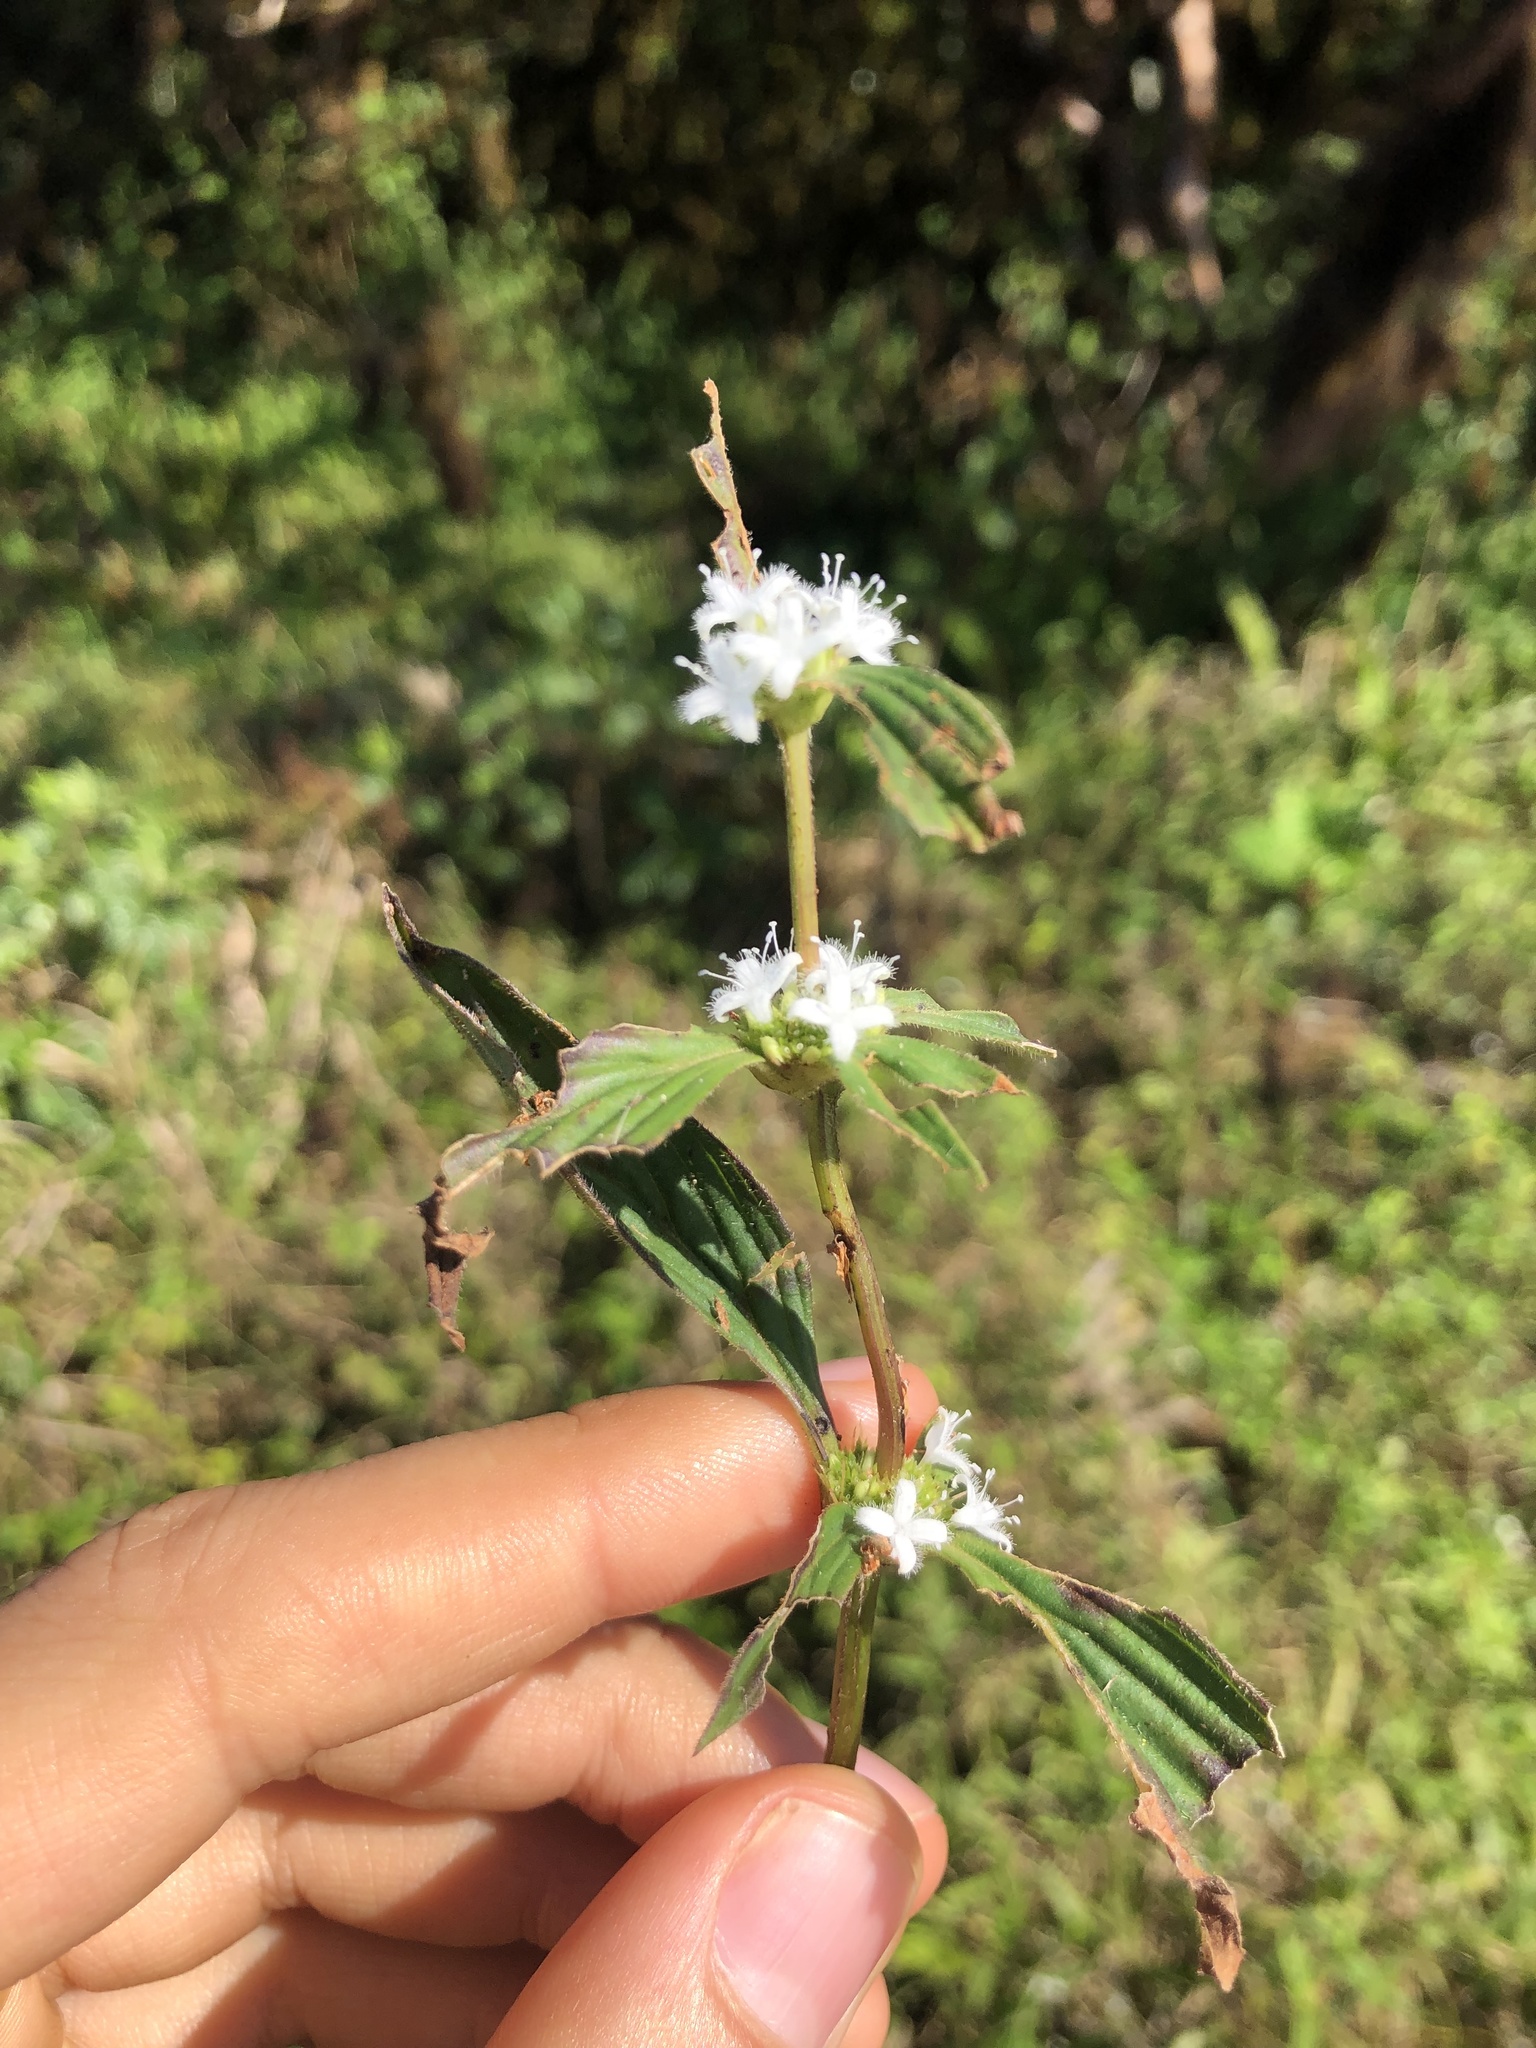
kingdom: Plantae
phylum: Tracheophyta
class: Magnoliopsida
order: Gentianales
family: Rubiaceae
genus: Spermacoce
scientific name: Spermacoce remota
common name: Woodland false buttonweed
